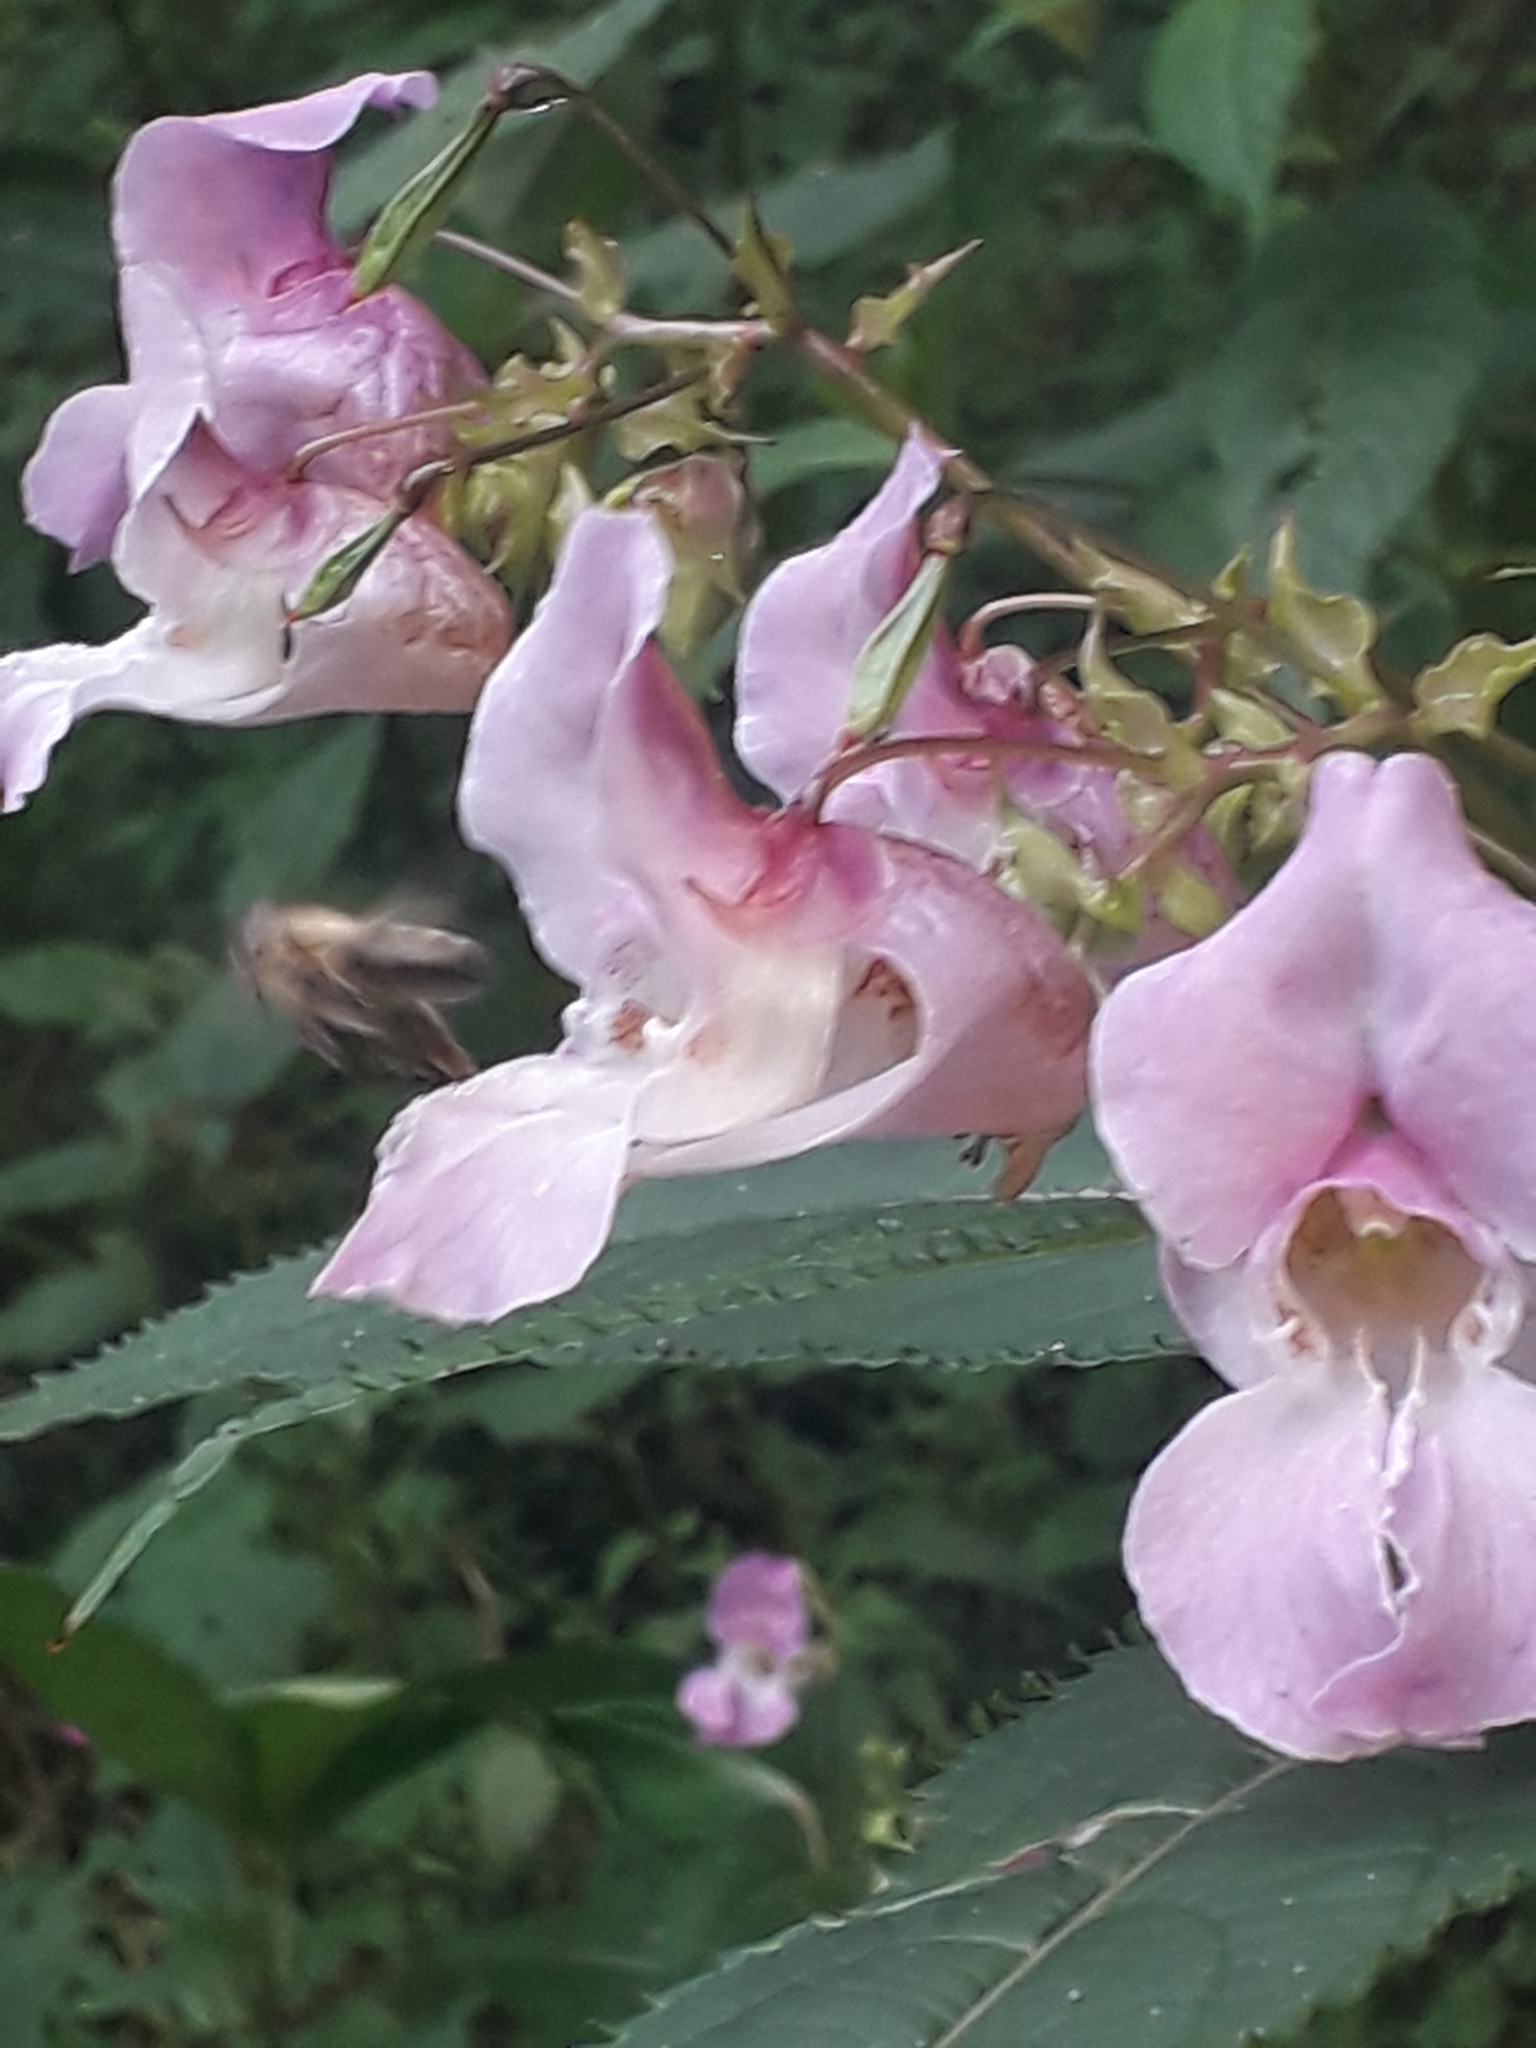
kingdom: Plantae
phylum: Tracheophyta
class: Magnoliopsida
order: Ericales
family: Balsaminaceae
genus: Impatiens
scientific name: Impatiens glandulifera
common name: Himalayan balsam
